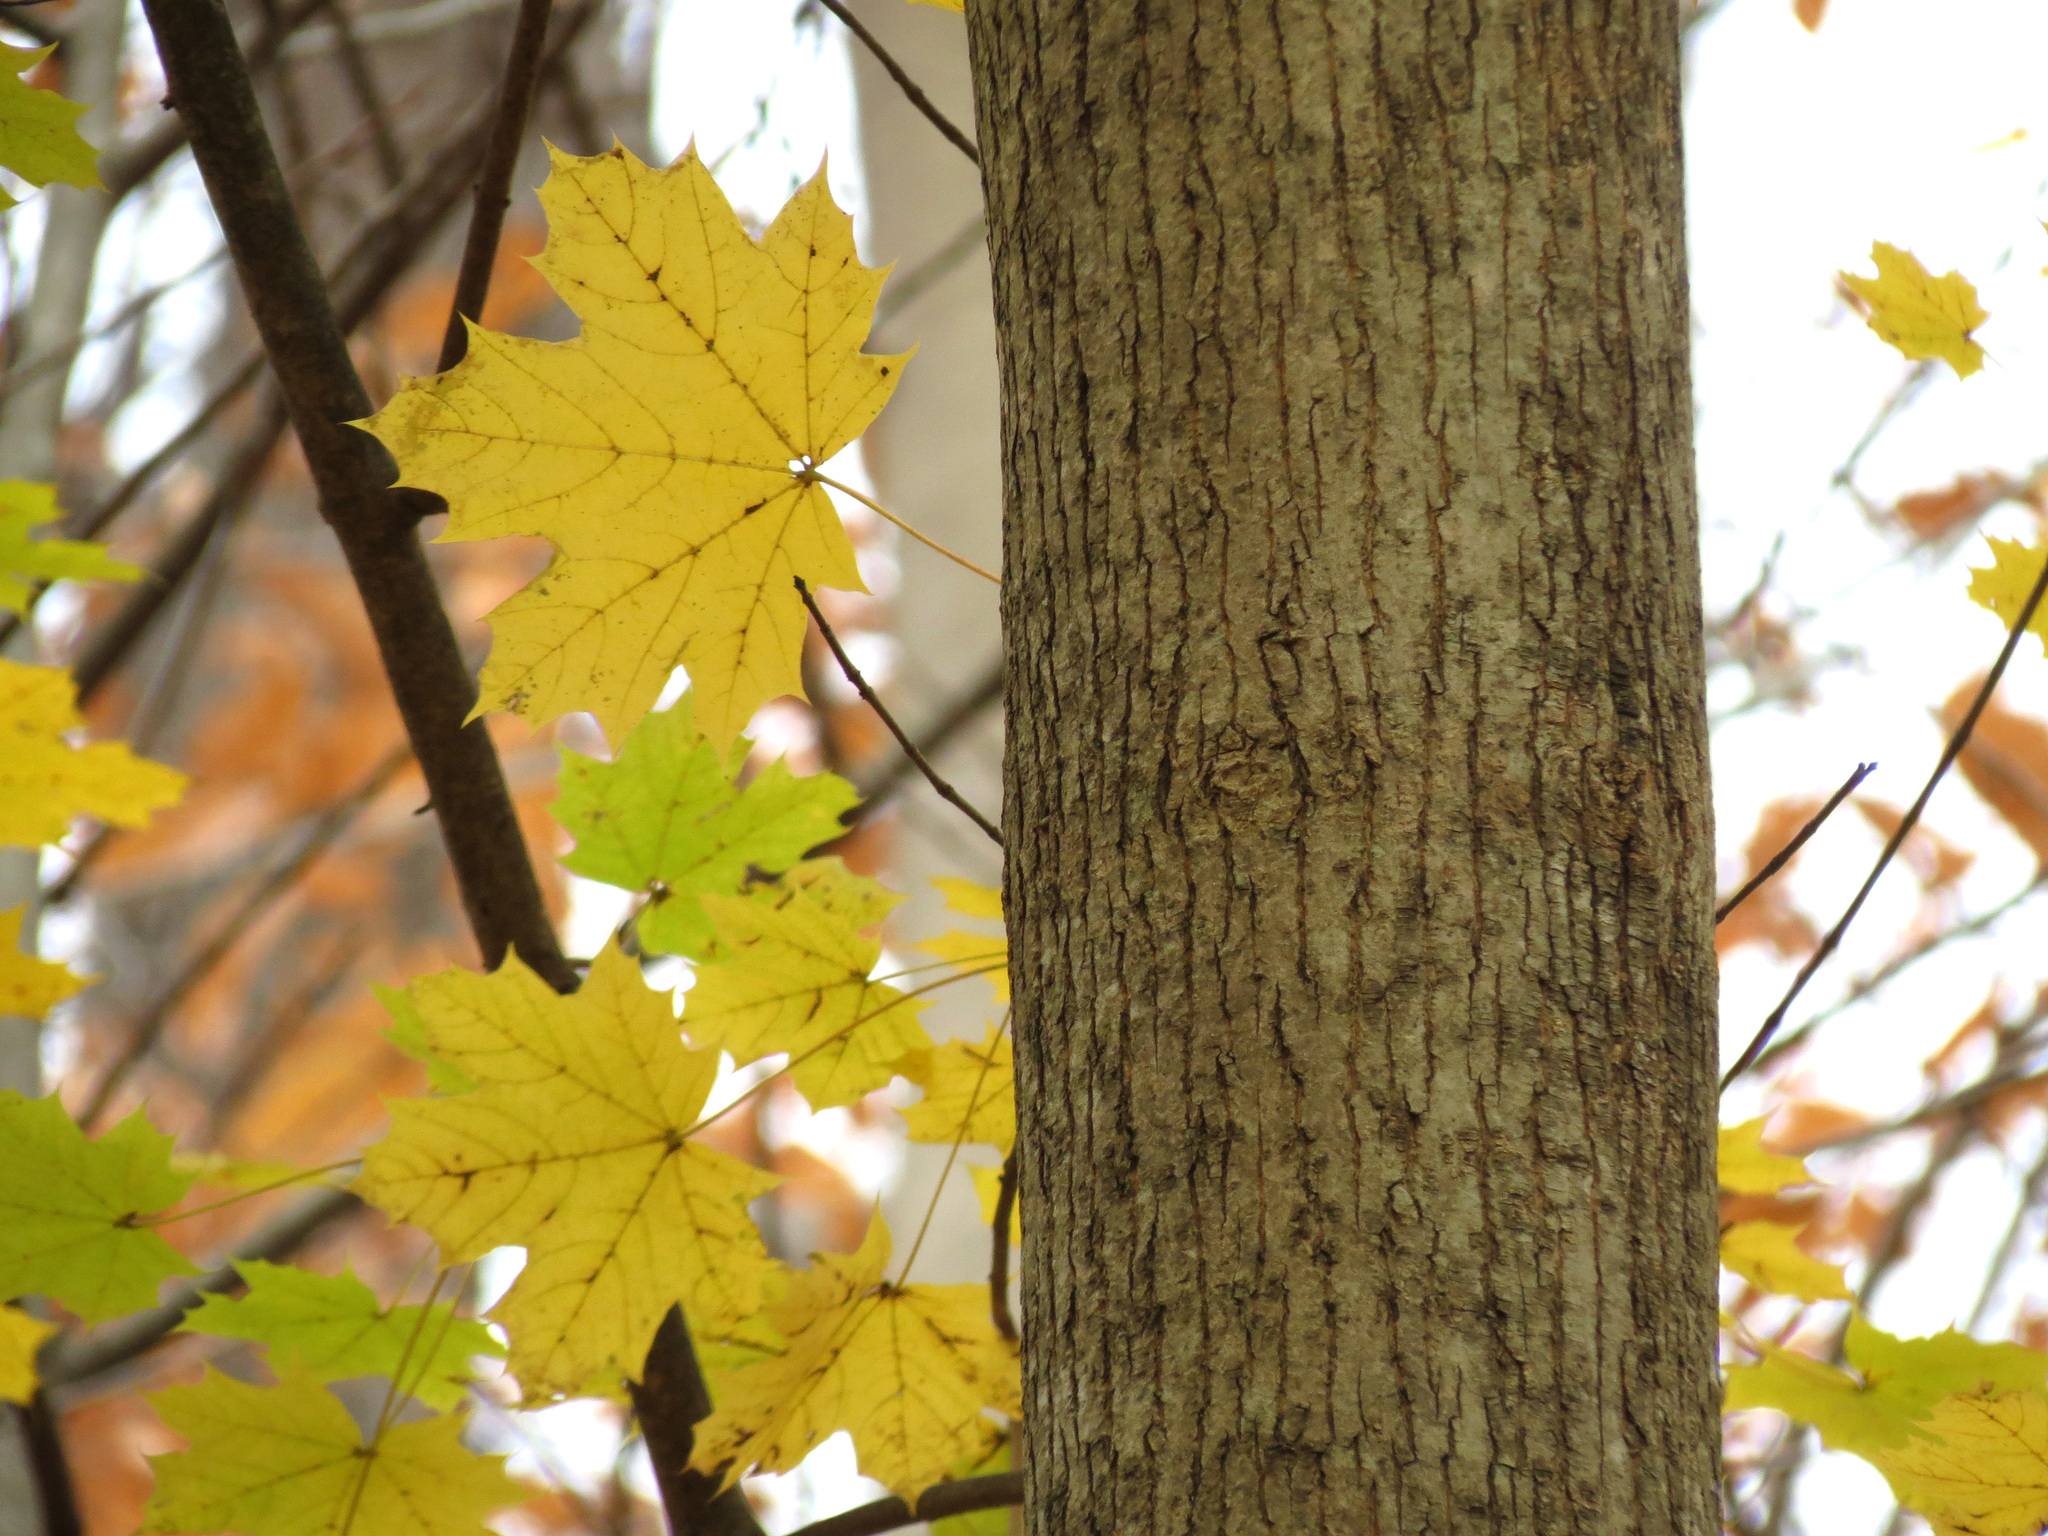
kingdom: Plantae
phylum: Tracheophyta
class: Magnoliopsida
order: Sapindales
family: Sapindaceae
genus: Acer
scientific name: Acer platanoides
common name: Norway maple
